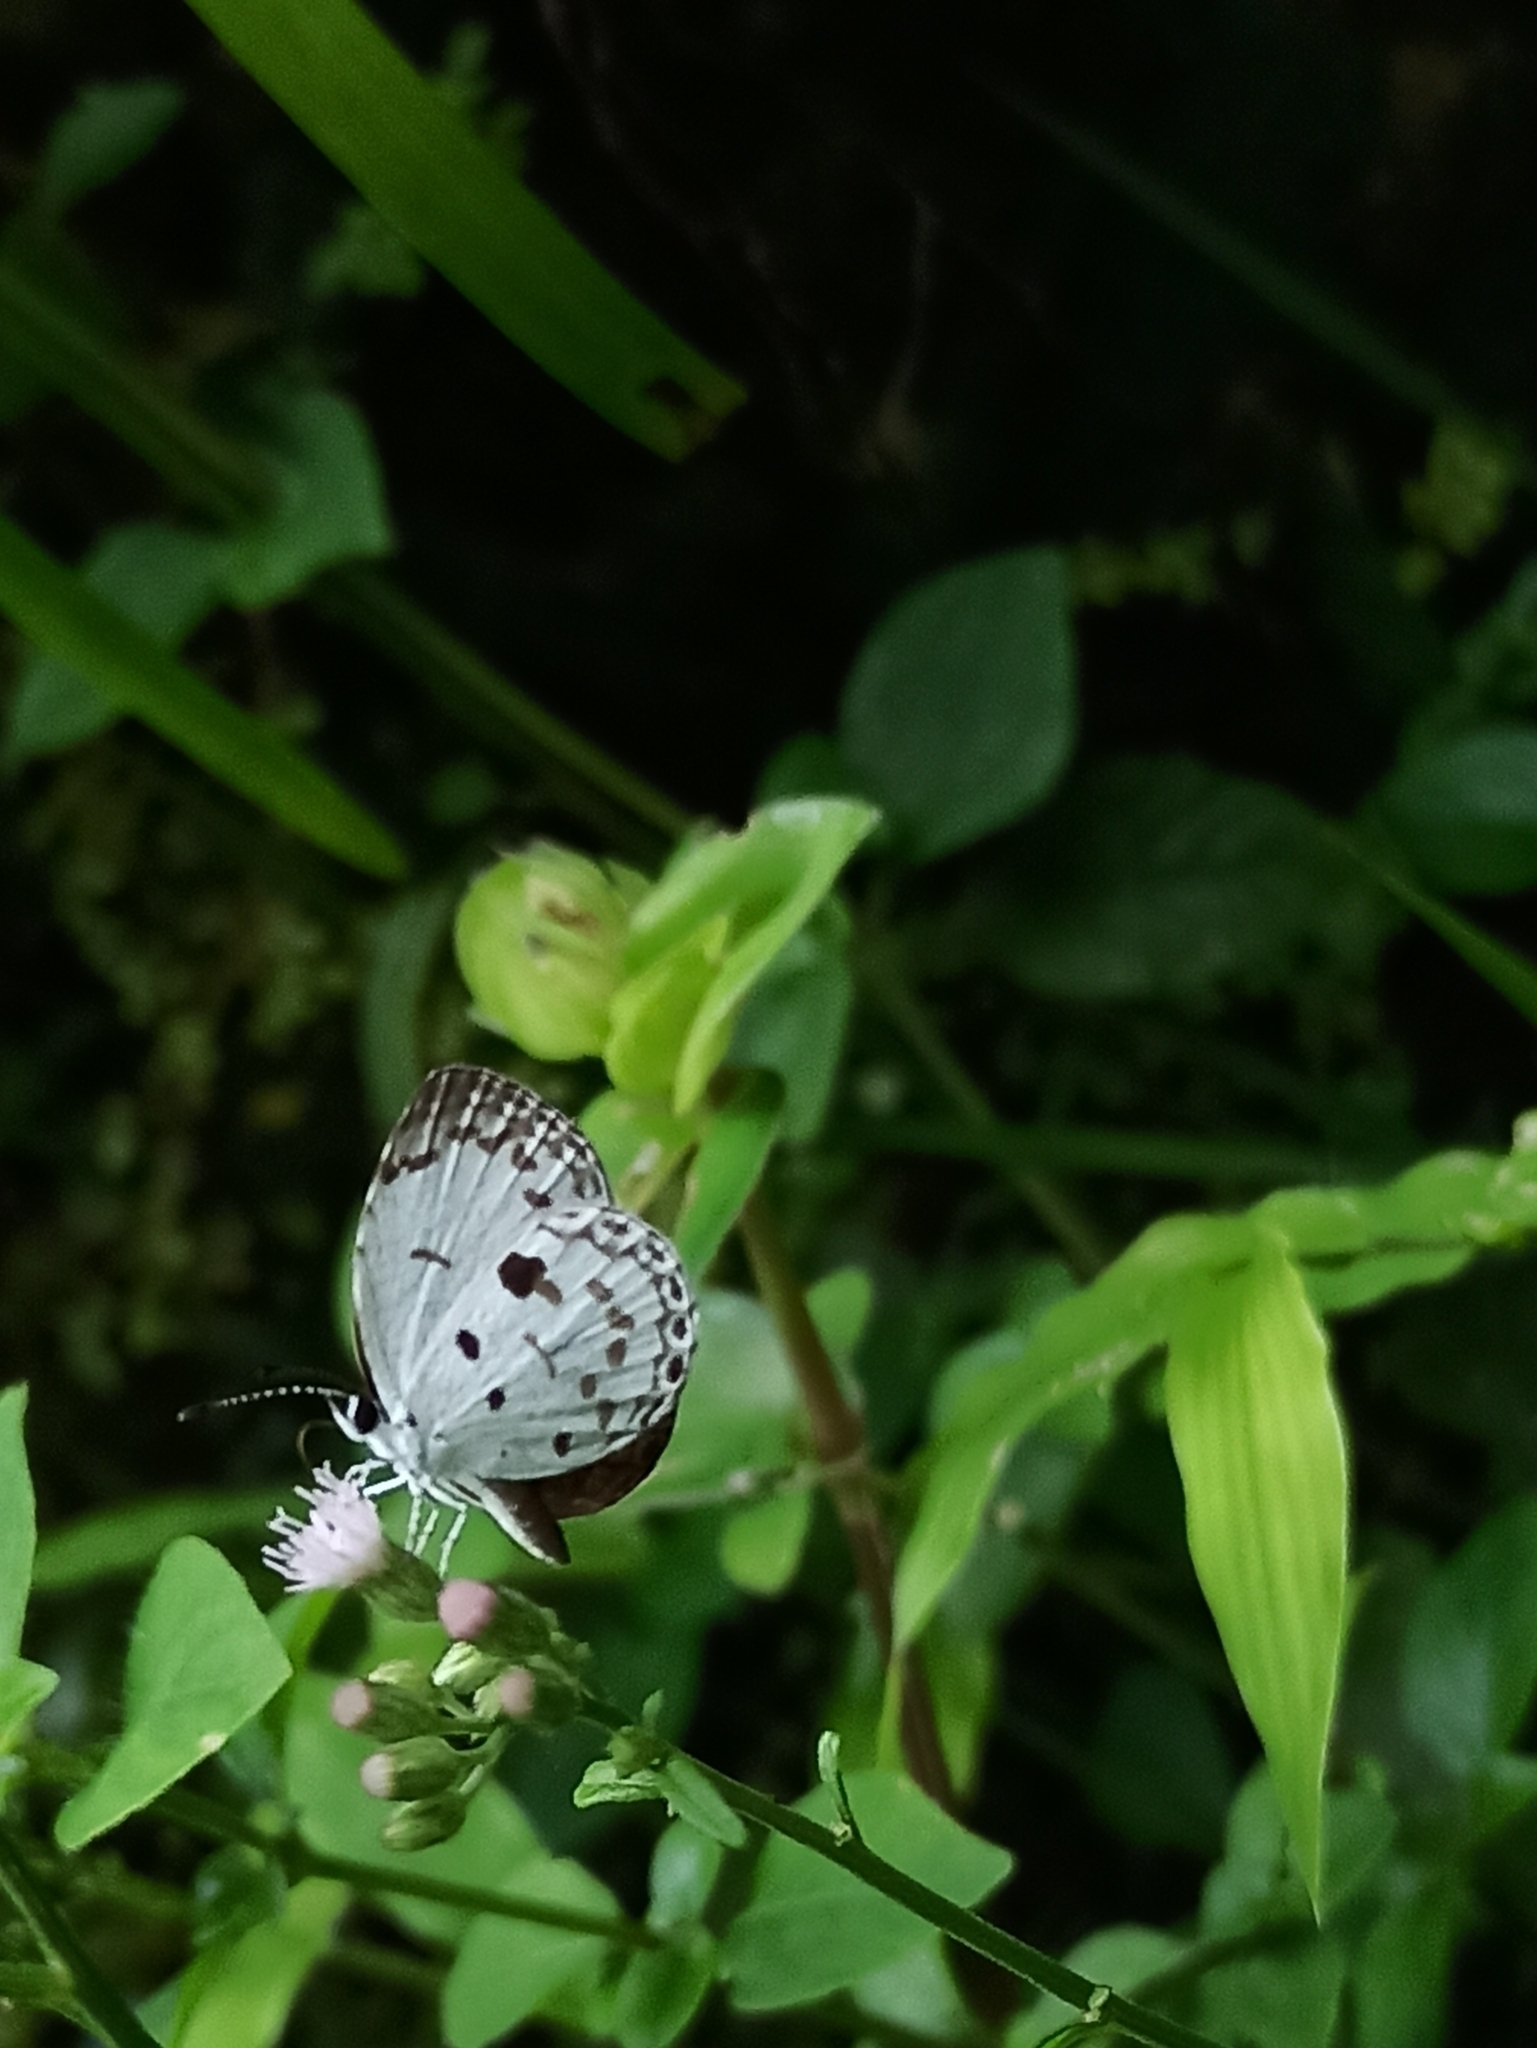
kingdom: Animalia
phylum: Arthropoda
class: Insecta
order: Lepidoptera
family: Lycaenidae
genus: Neopithecops
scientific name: Neopithecops zalmora
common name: Quaker
